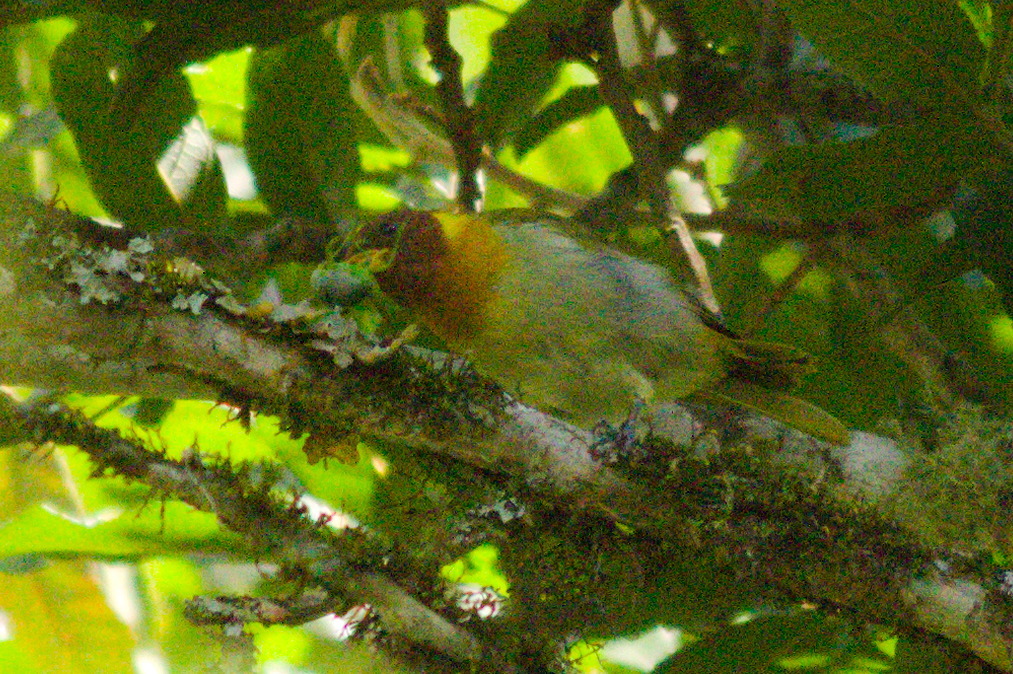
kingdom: Animalia
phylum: Chordata
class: Aves
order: Passeriformes
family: Thraupidae
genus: Hemithraupis
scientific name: Hemithraupis ruficapilla
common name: Rufous-headed tanager
